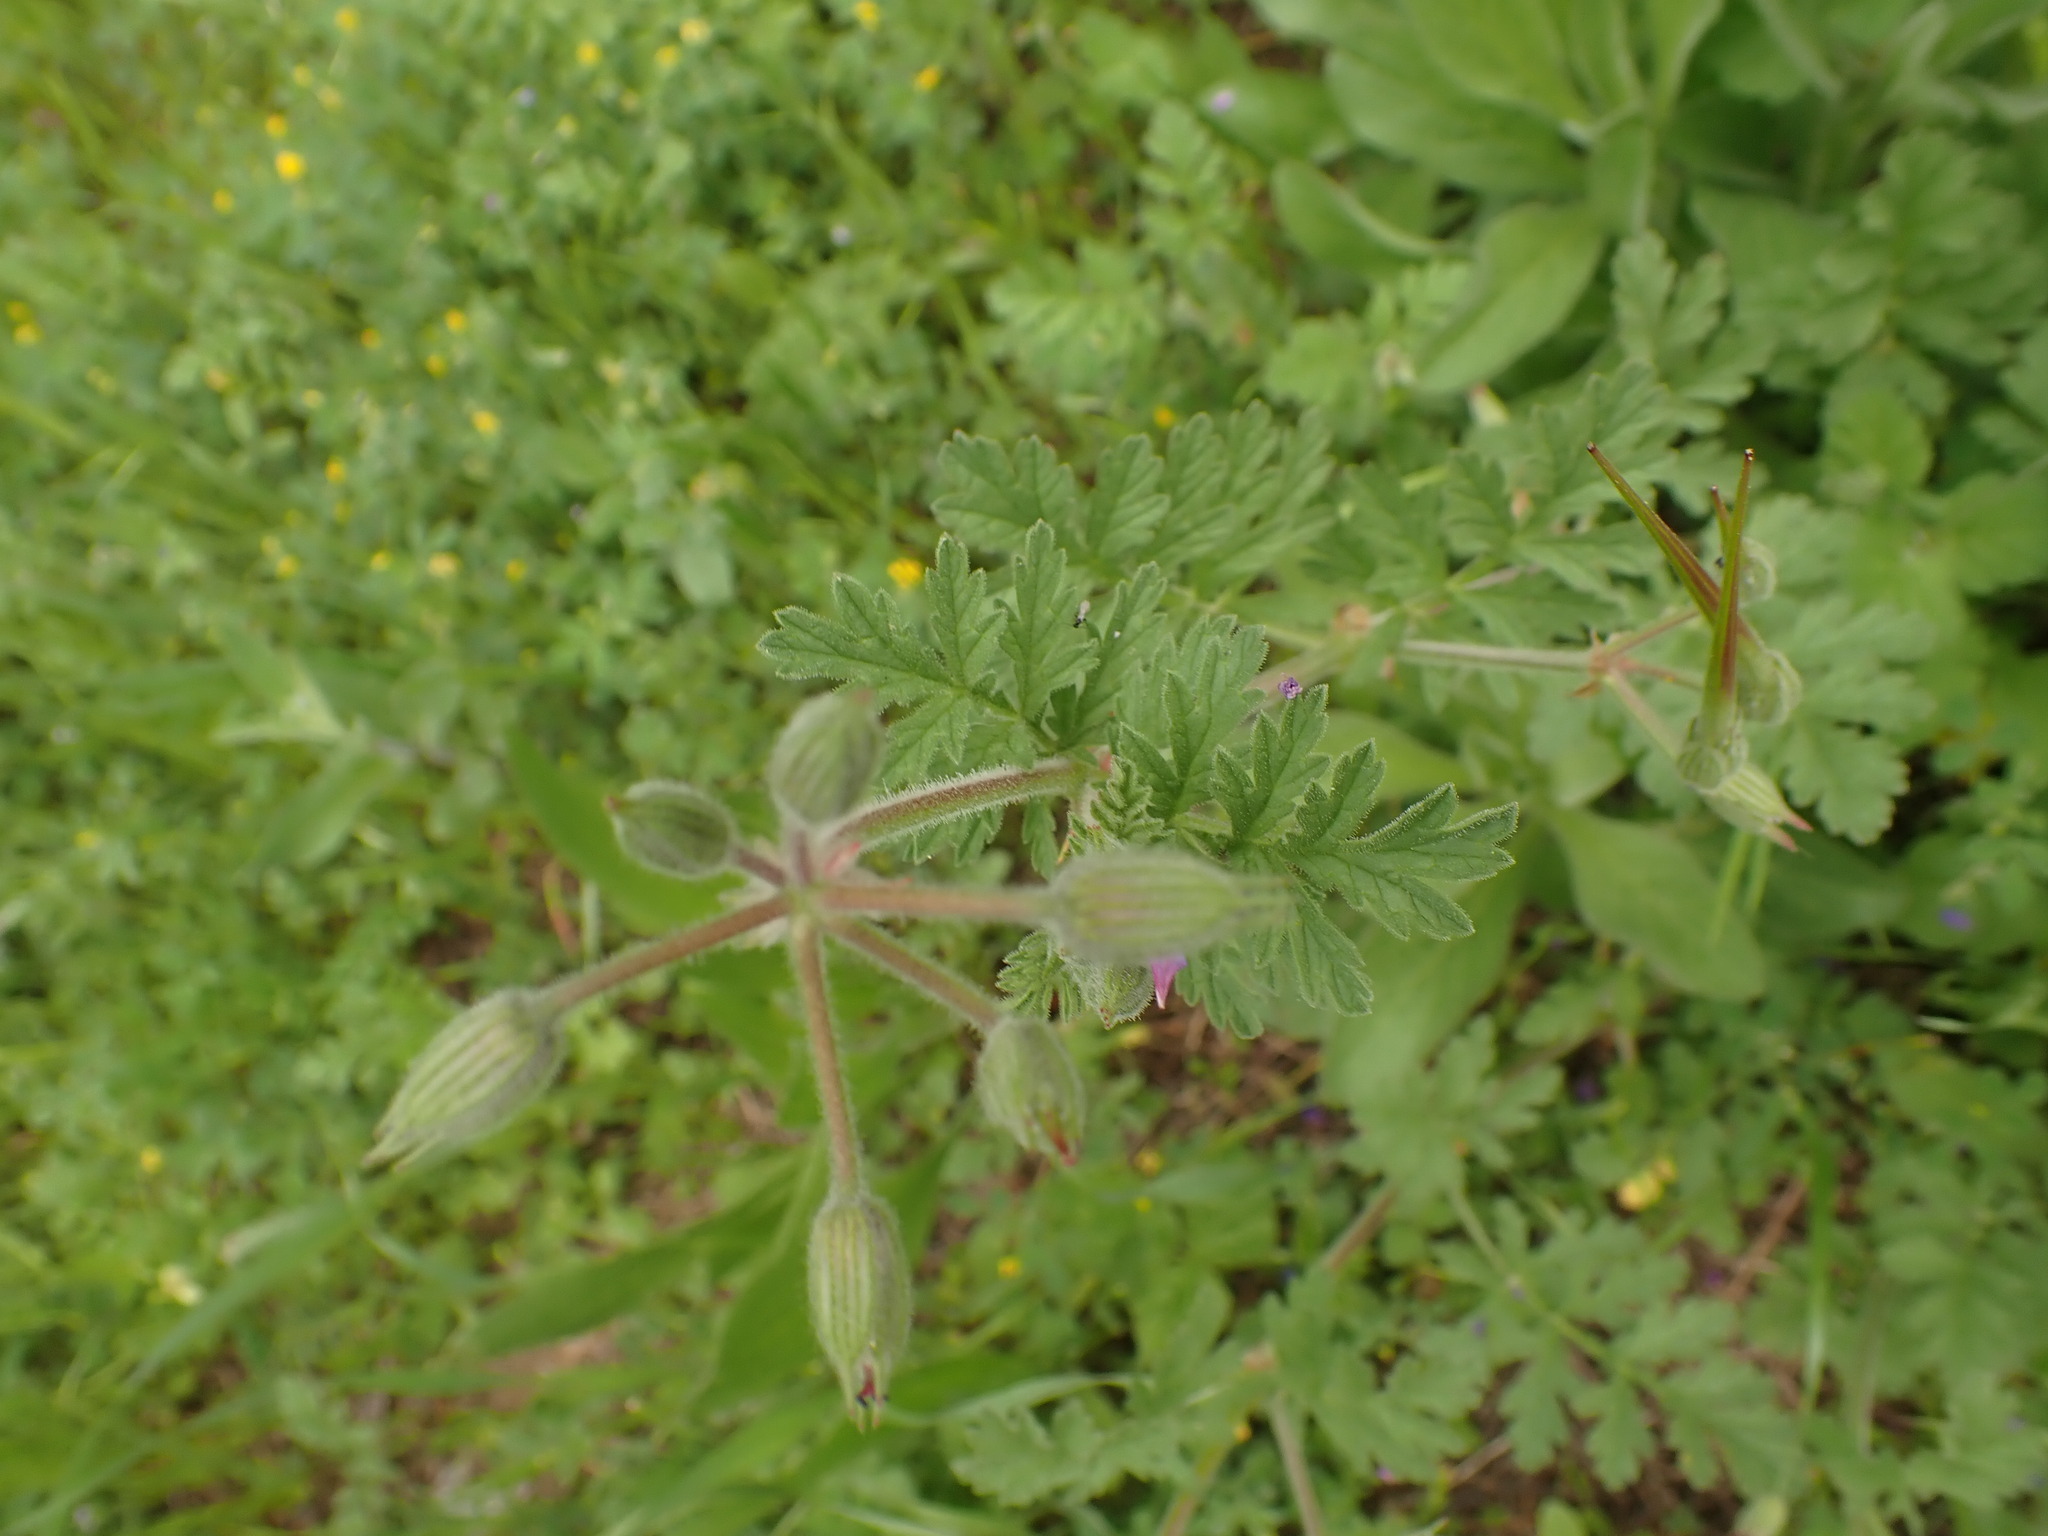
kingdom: Plantae
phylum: Tracheophyta
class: Magnoliopsida
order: Geraniales
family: Geraniaceae
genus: Erodium
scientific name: Erodium ciconium
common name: Common stork's bill
